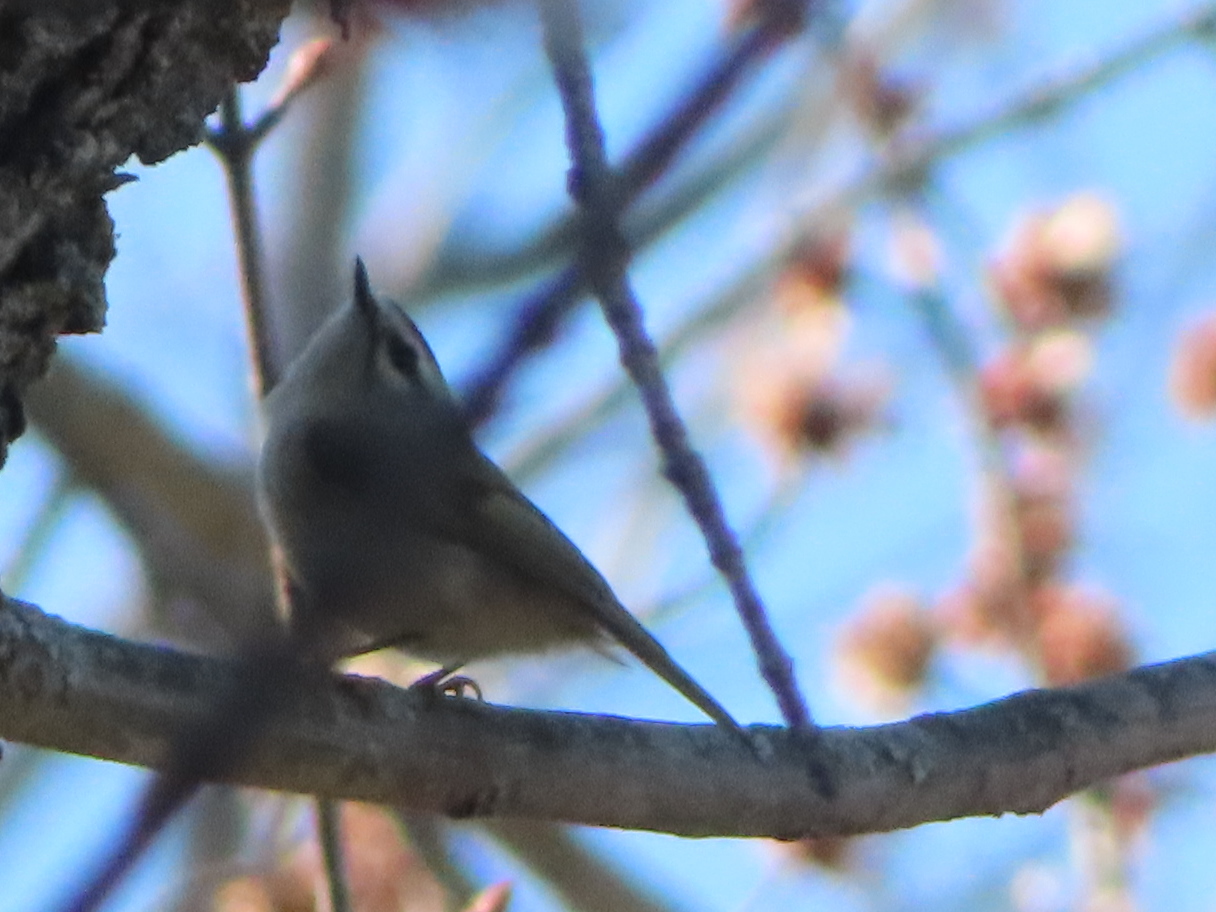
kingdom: Animalia
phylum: Chordata
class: Aves
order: Passeriformes
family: Regulidae
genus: Regulus
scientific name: Regulus satrapa
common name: Golden-crowned kinglet
